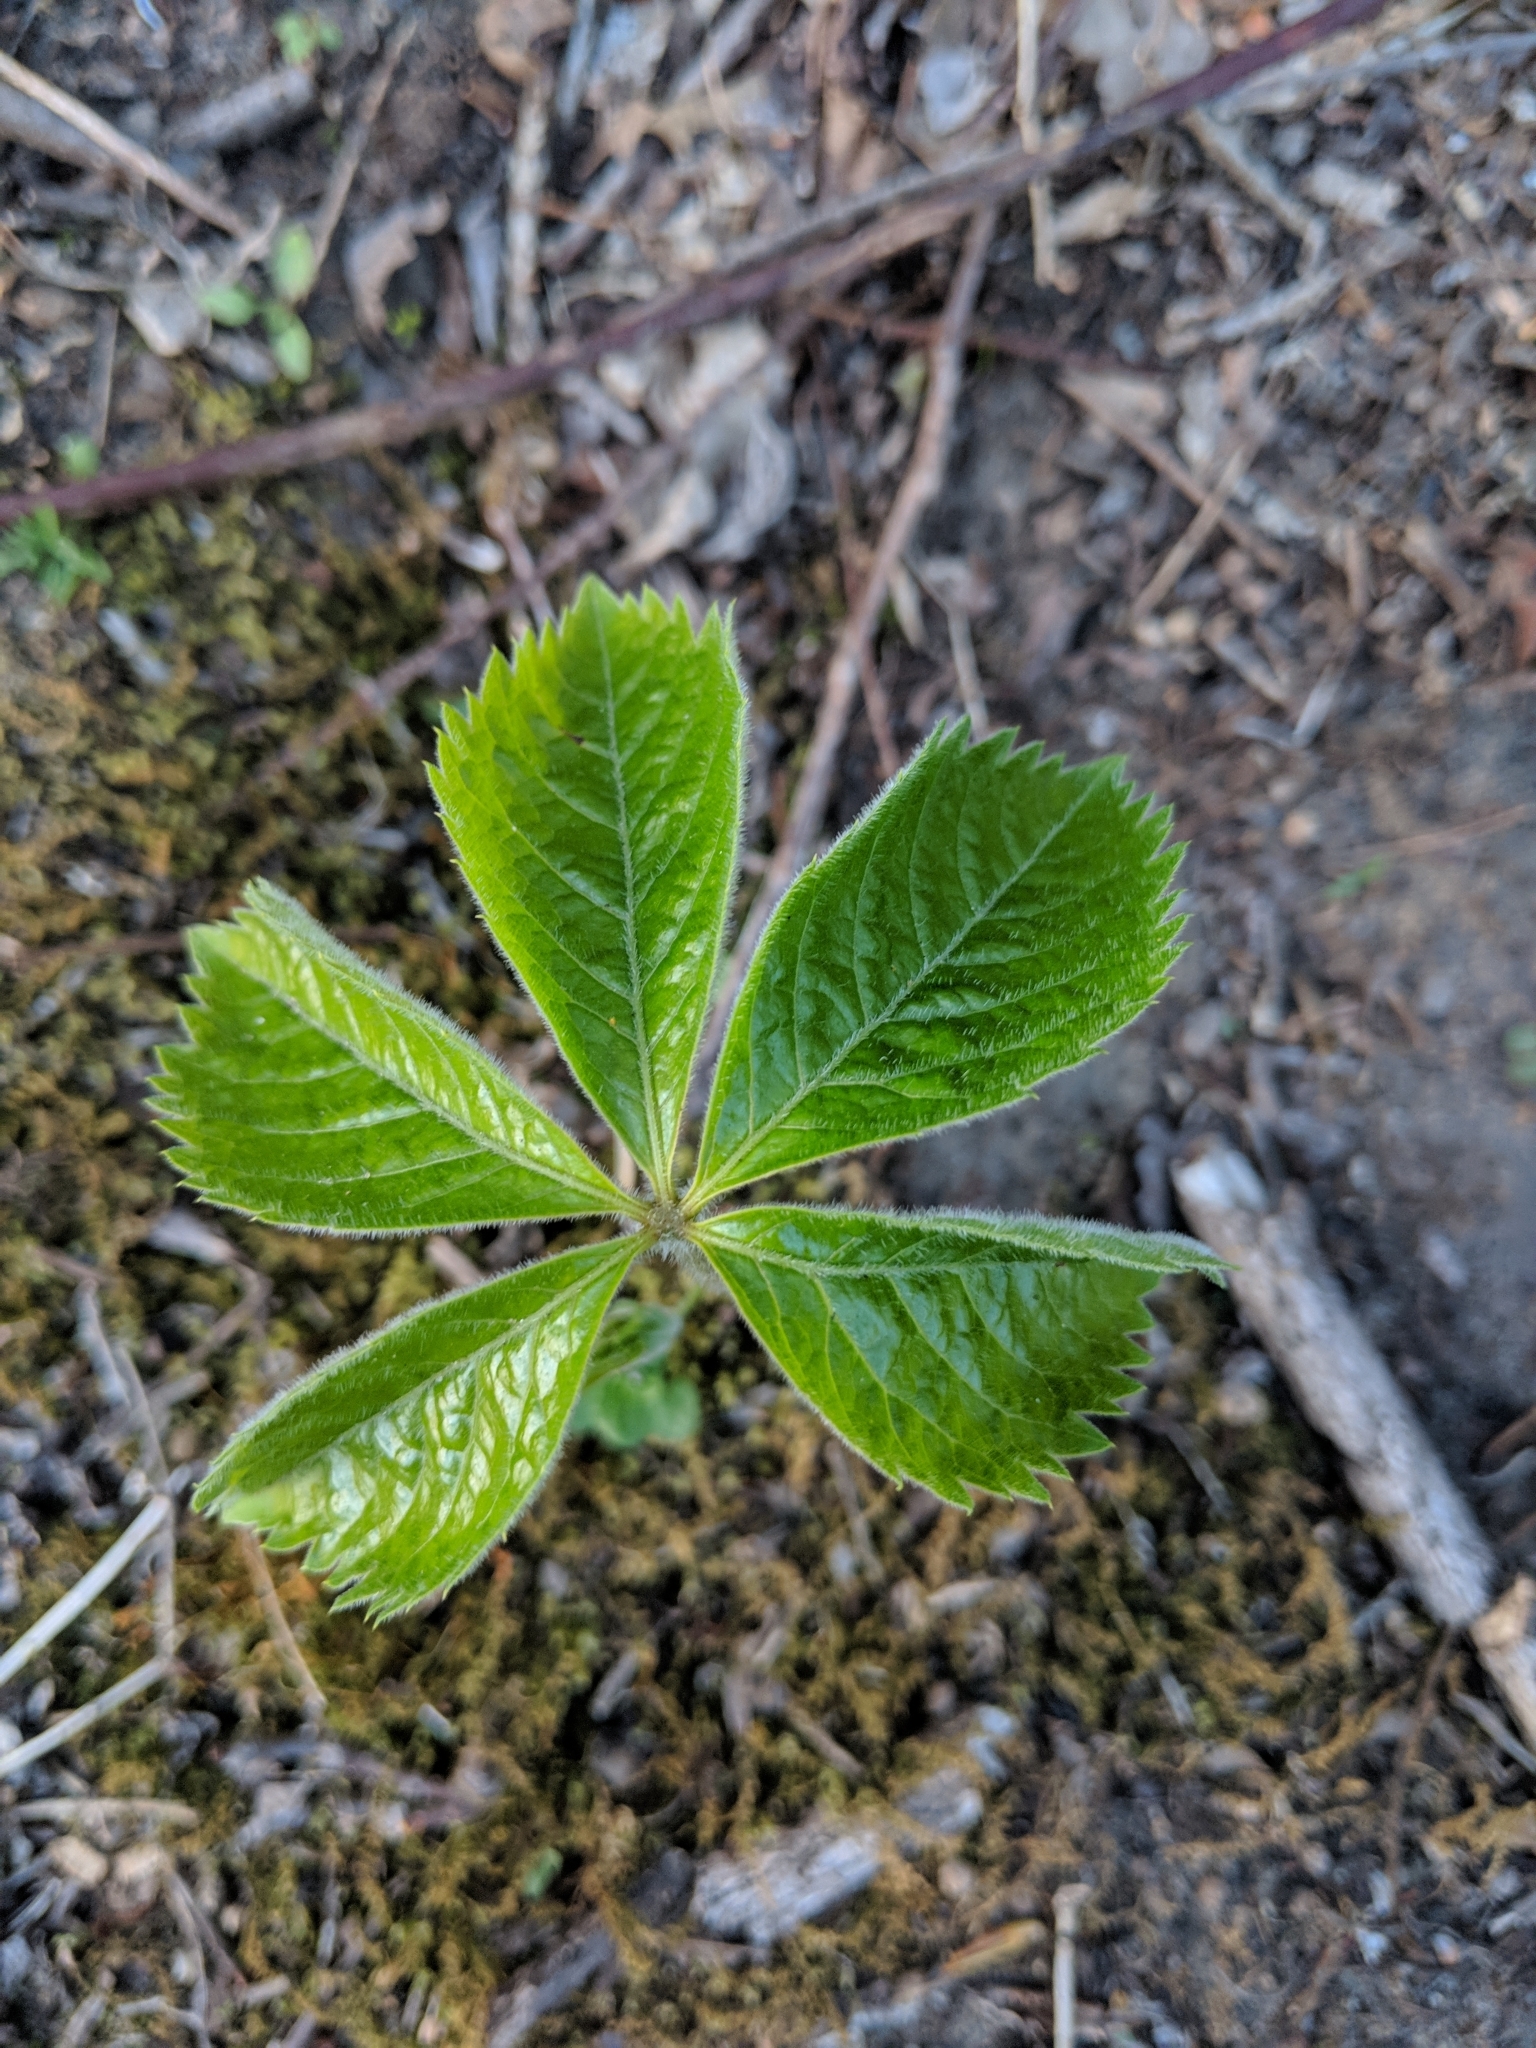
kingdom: Plantae
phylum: Tracheophyta
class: Magnoliopsida
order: Vitales
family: Vitaceae
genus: Parthenocissus
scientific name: Parthenocissus quinquefolia
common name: Virginia-creeper
